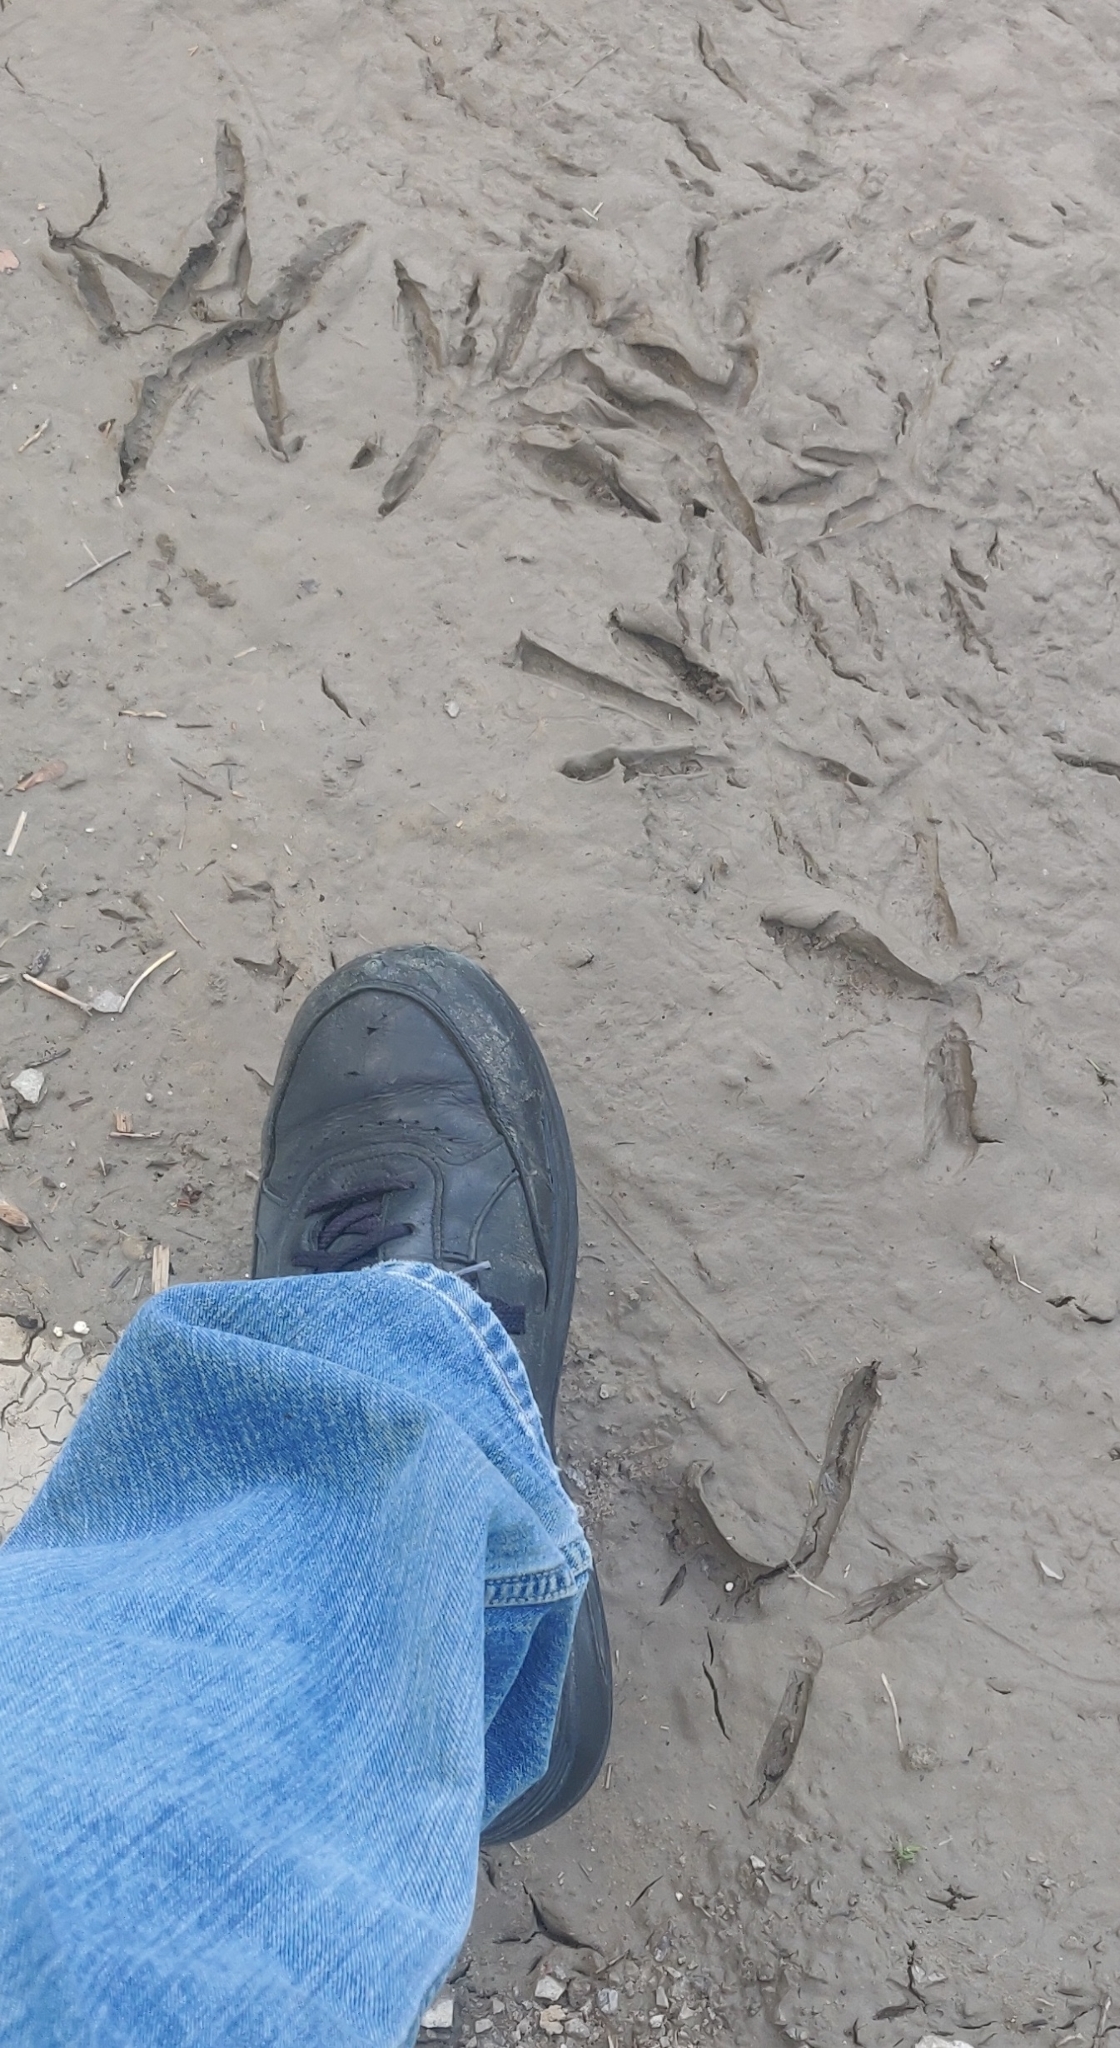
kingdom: Animalia
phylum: Chordata
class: Aves
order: Pelecaniformes
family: Ardeidae
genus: Ardea
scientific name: Ardea herodias
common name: Great blue heron
